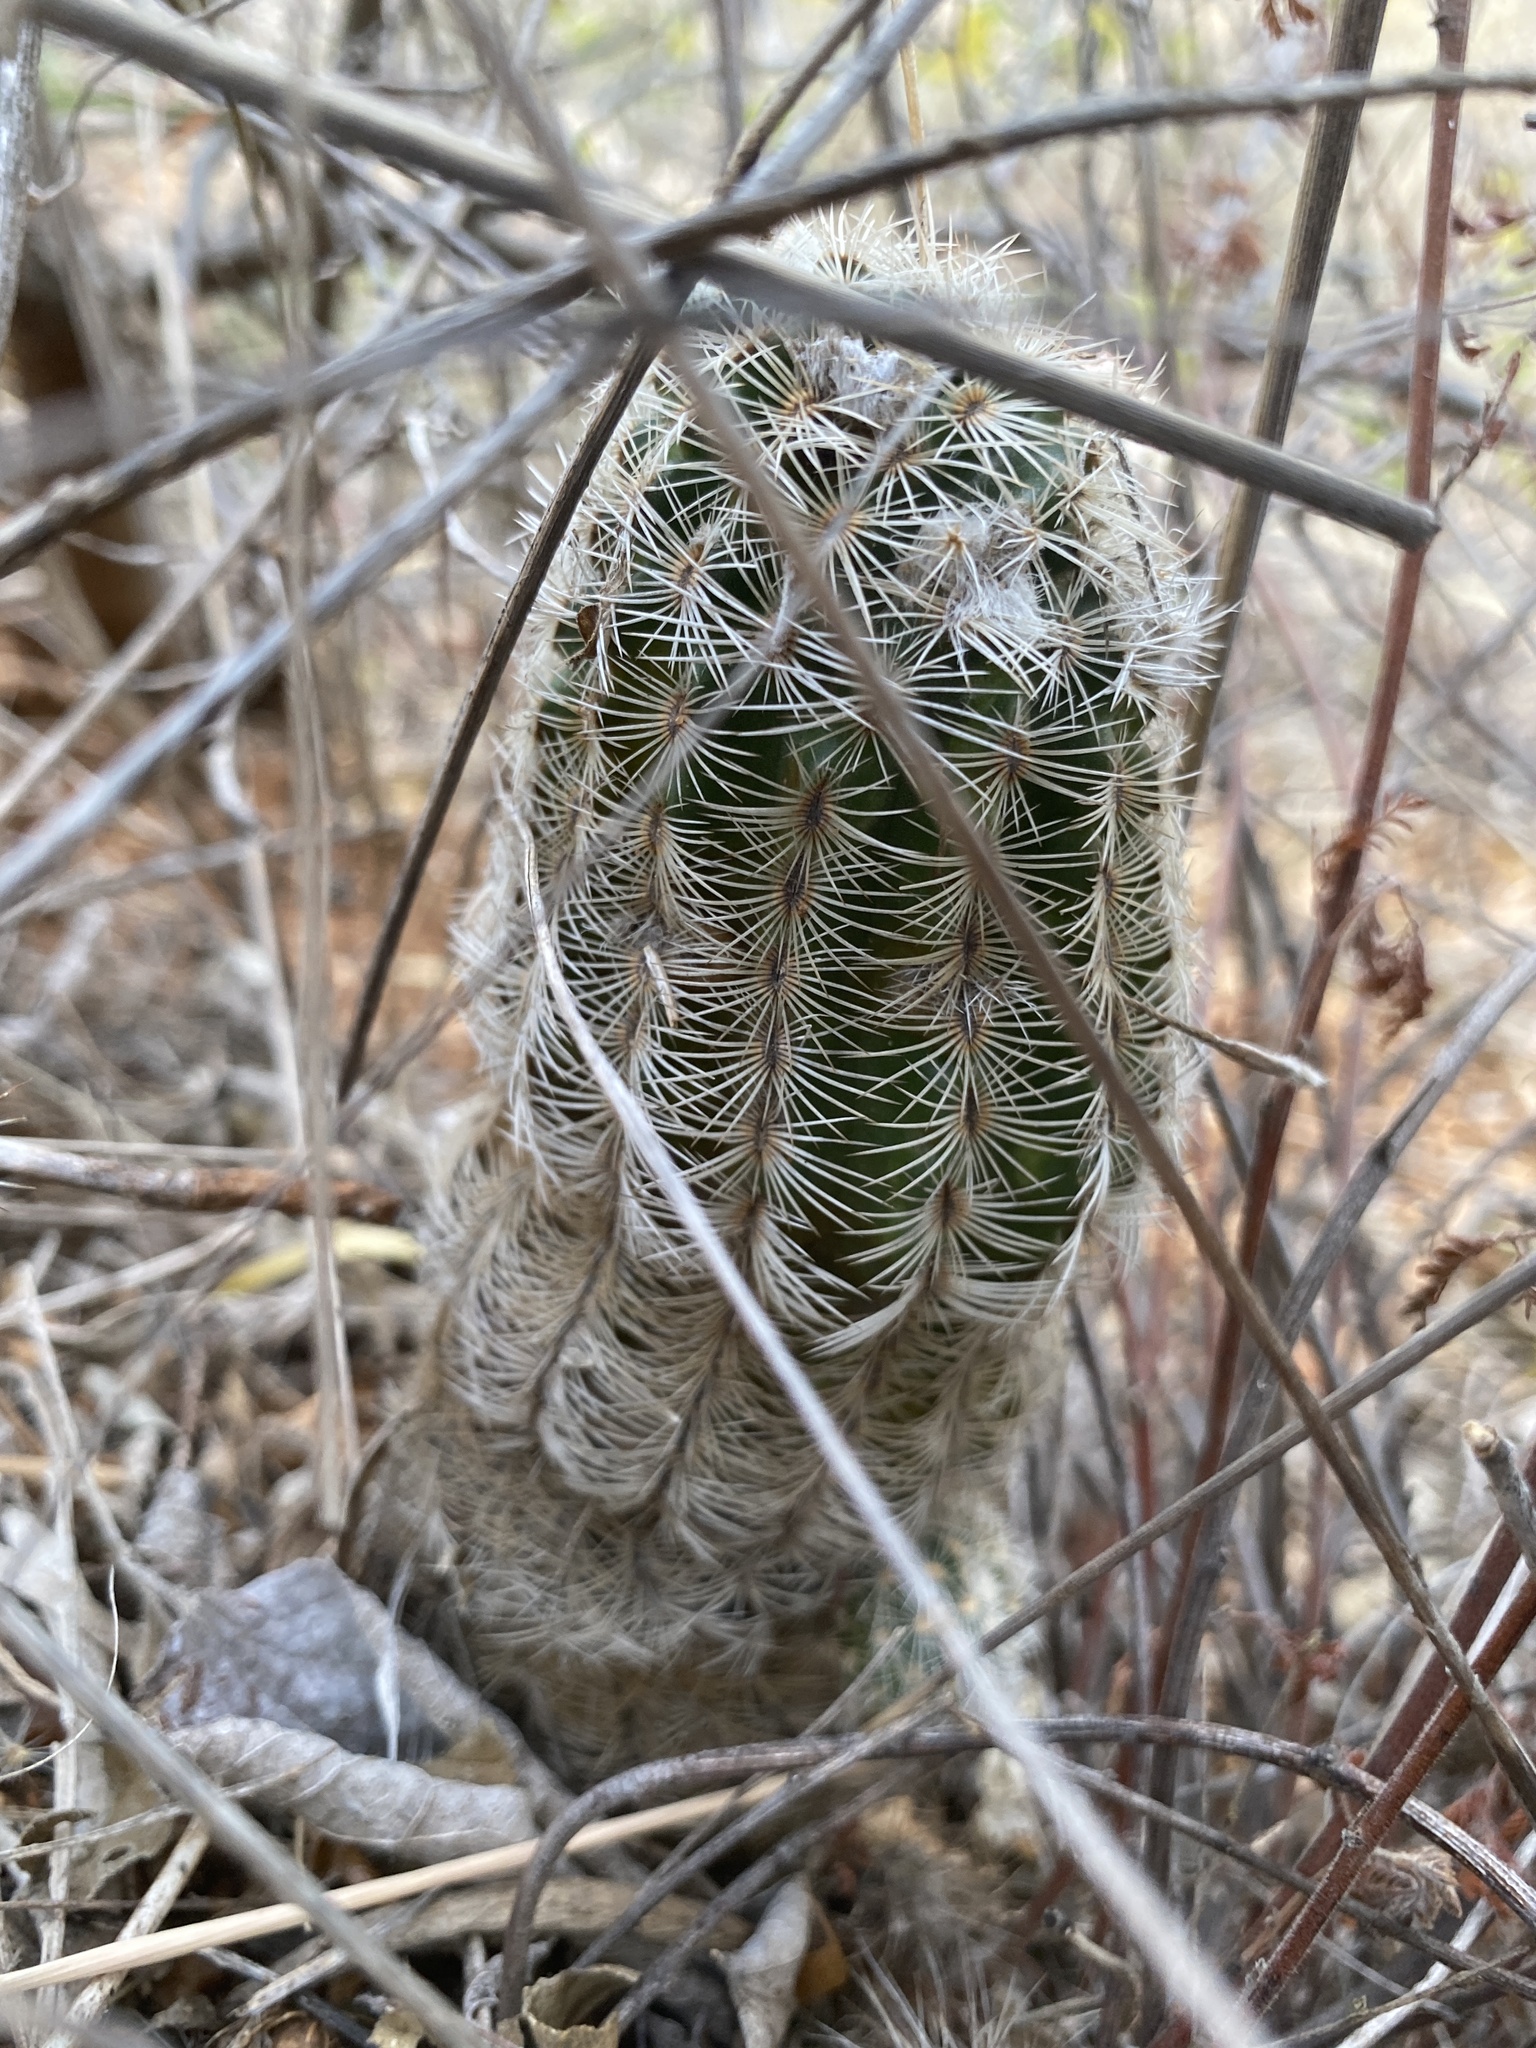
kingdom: Plantae
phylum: Tracheophyta
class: Magnoliopsida
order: Caryophyllales
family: Cactaceae
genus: Echinocereus
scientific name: Echinocereus reichenbachii
